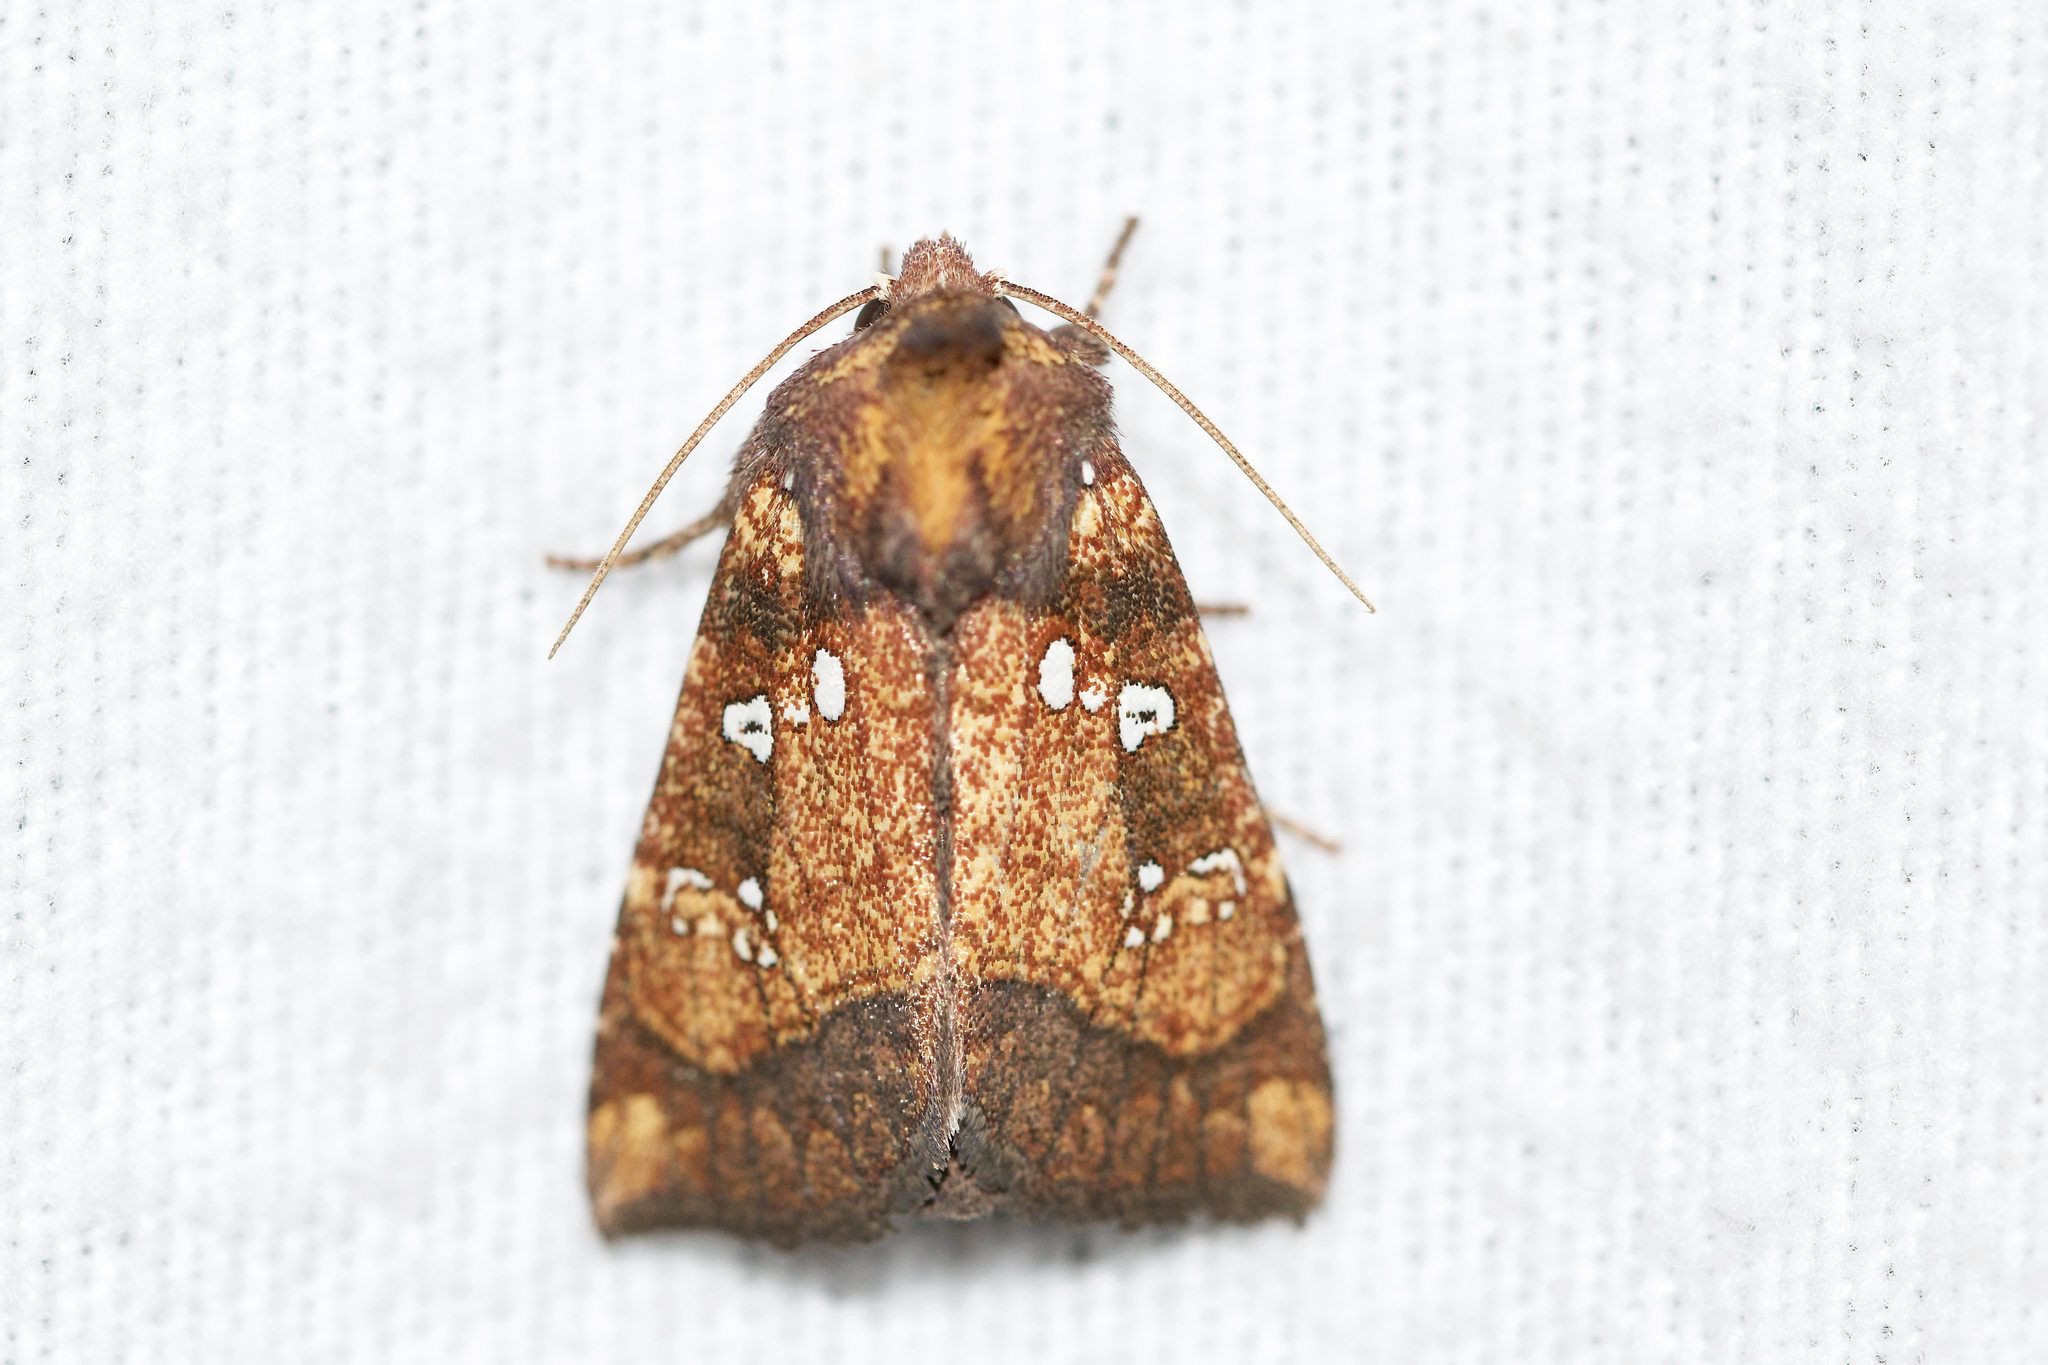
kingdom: Animalia
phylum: Arthropoda
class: Insecta
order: Lepidoptera
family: Noctuidae
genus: Papaipema
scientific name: Papaipema arctivorens
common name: Northern burdock borer moth
